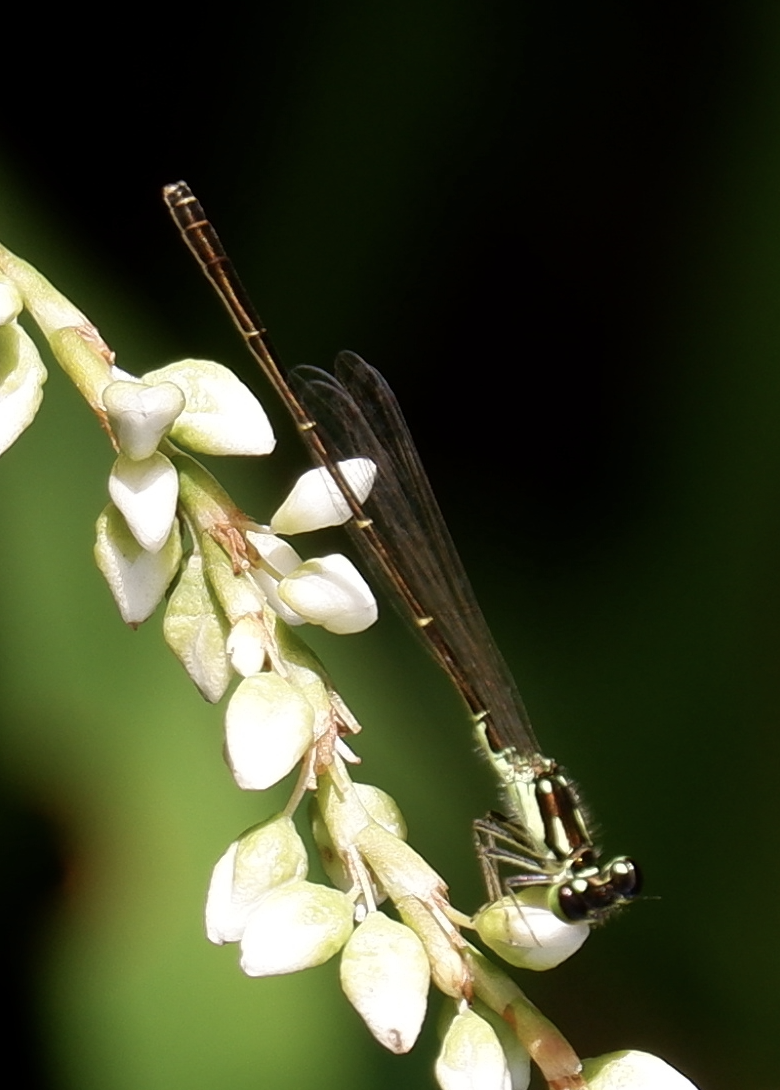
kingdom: Animalia
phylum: Arthropoda
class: Insecta
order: Odonata
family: Coenagrionidae
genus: Ischnura
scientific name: Ischnura posita
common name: Fragile forktail
